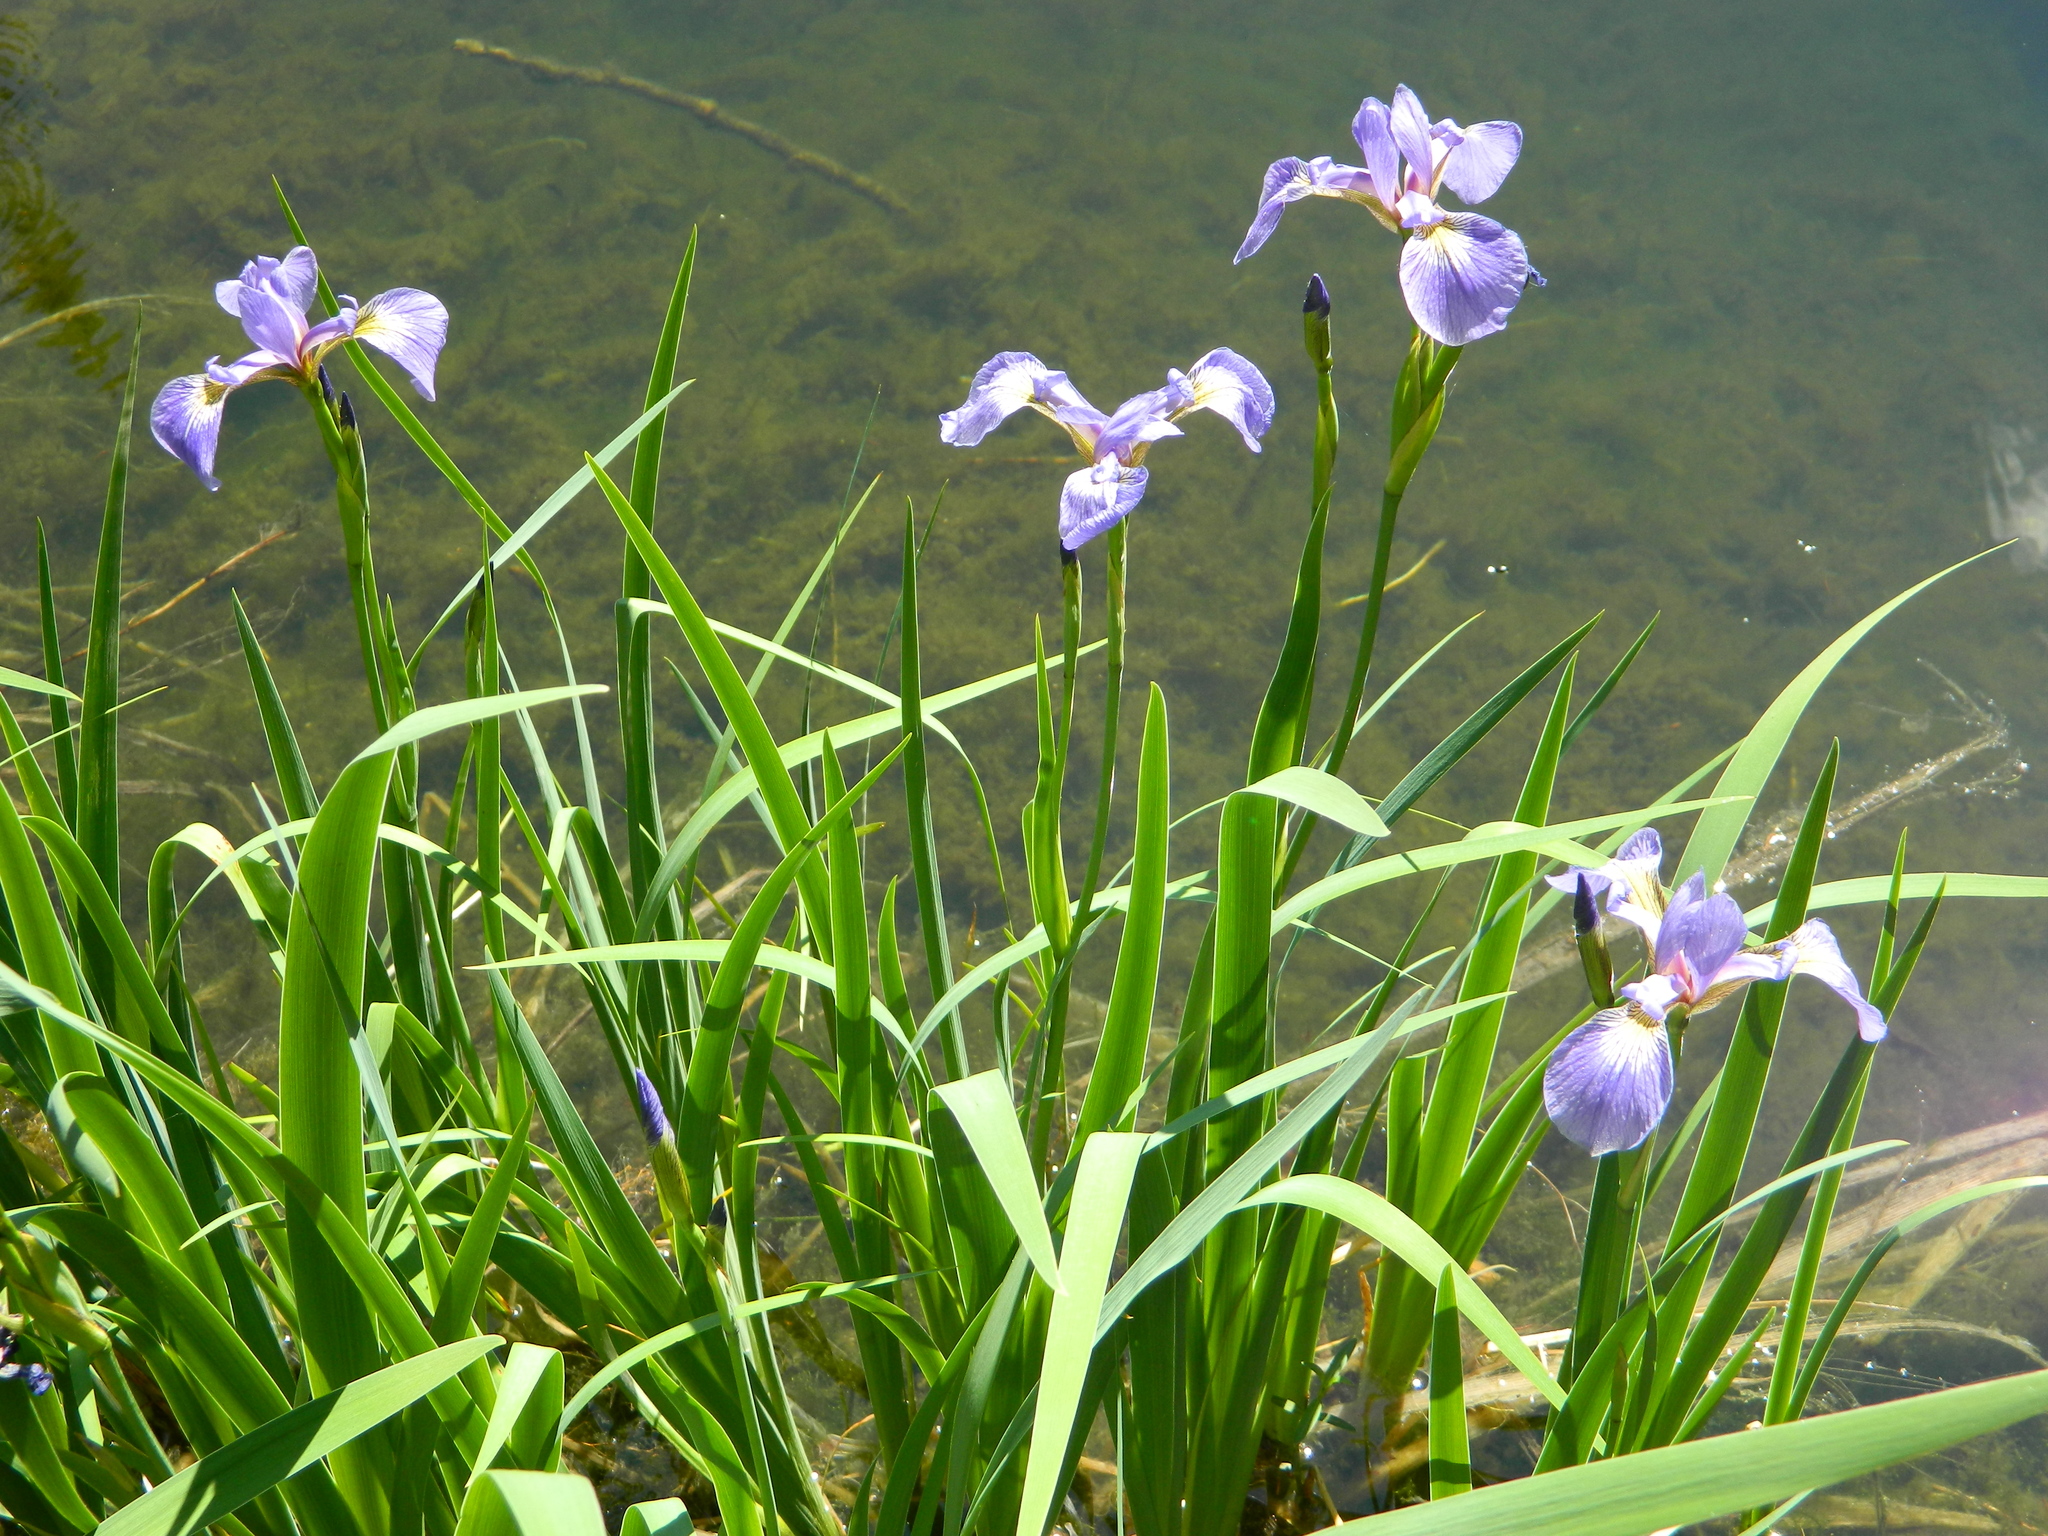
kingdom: Plantae
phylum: Tracheophyta
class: Liliopsida
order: Asparagales
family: Iridaceae
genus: Iris
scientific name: Iris versicolor
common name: Purple iris
